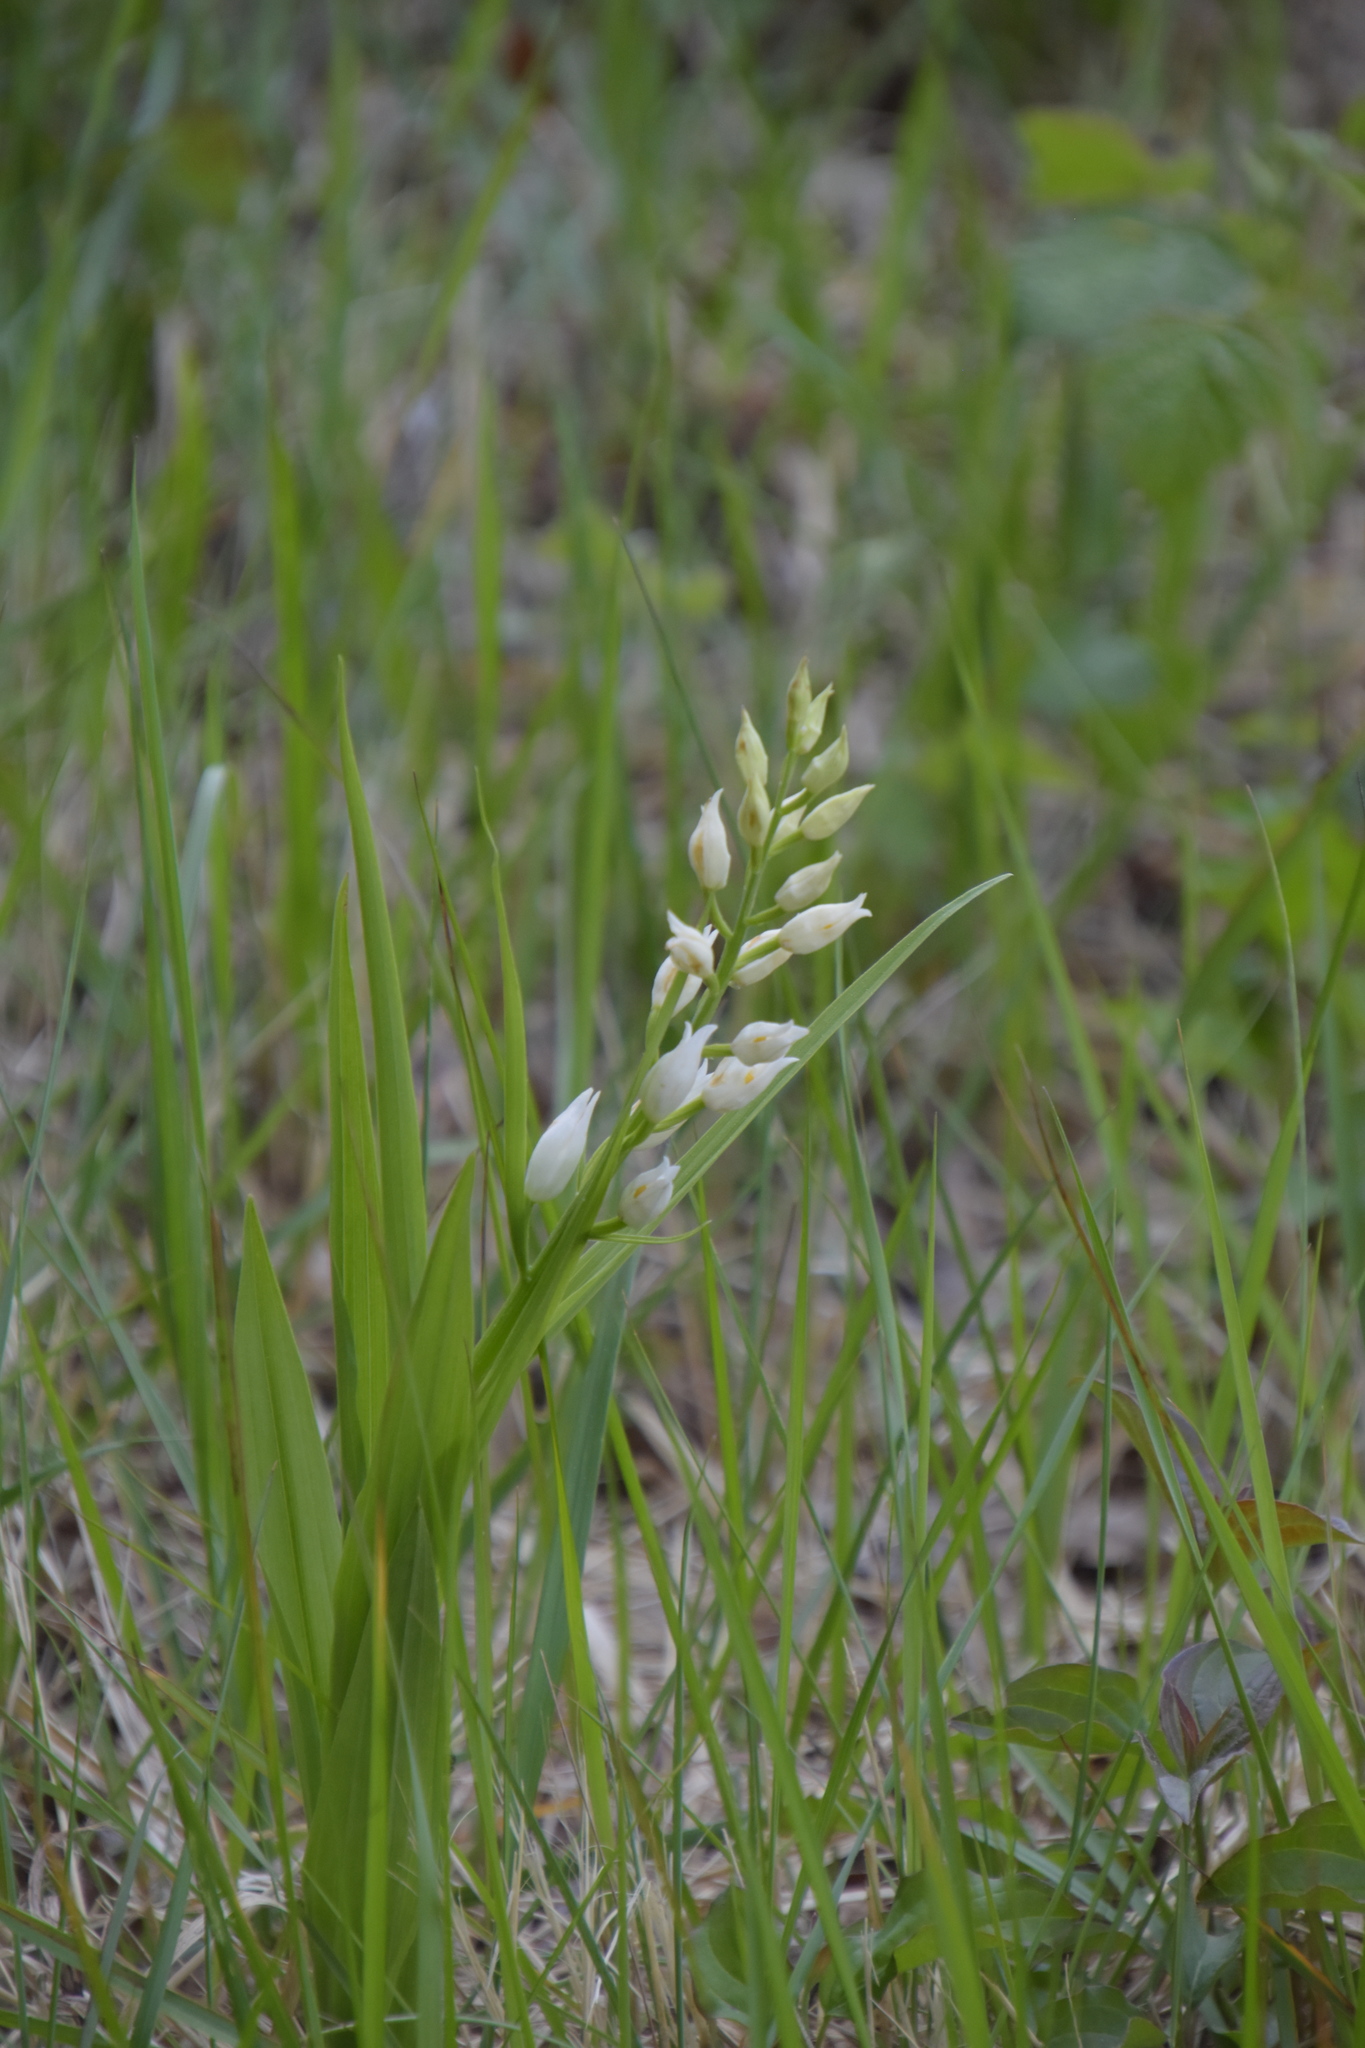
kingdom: Plantae
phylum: Tracheophyta
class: Liliopsida
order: Asparagales
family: Orchidaceae
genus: Cephalanthera
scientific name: Cephalanthera longifolia
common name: Narrow-leaved helleborine
